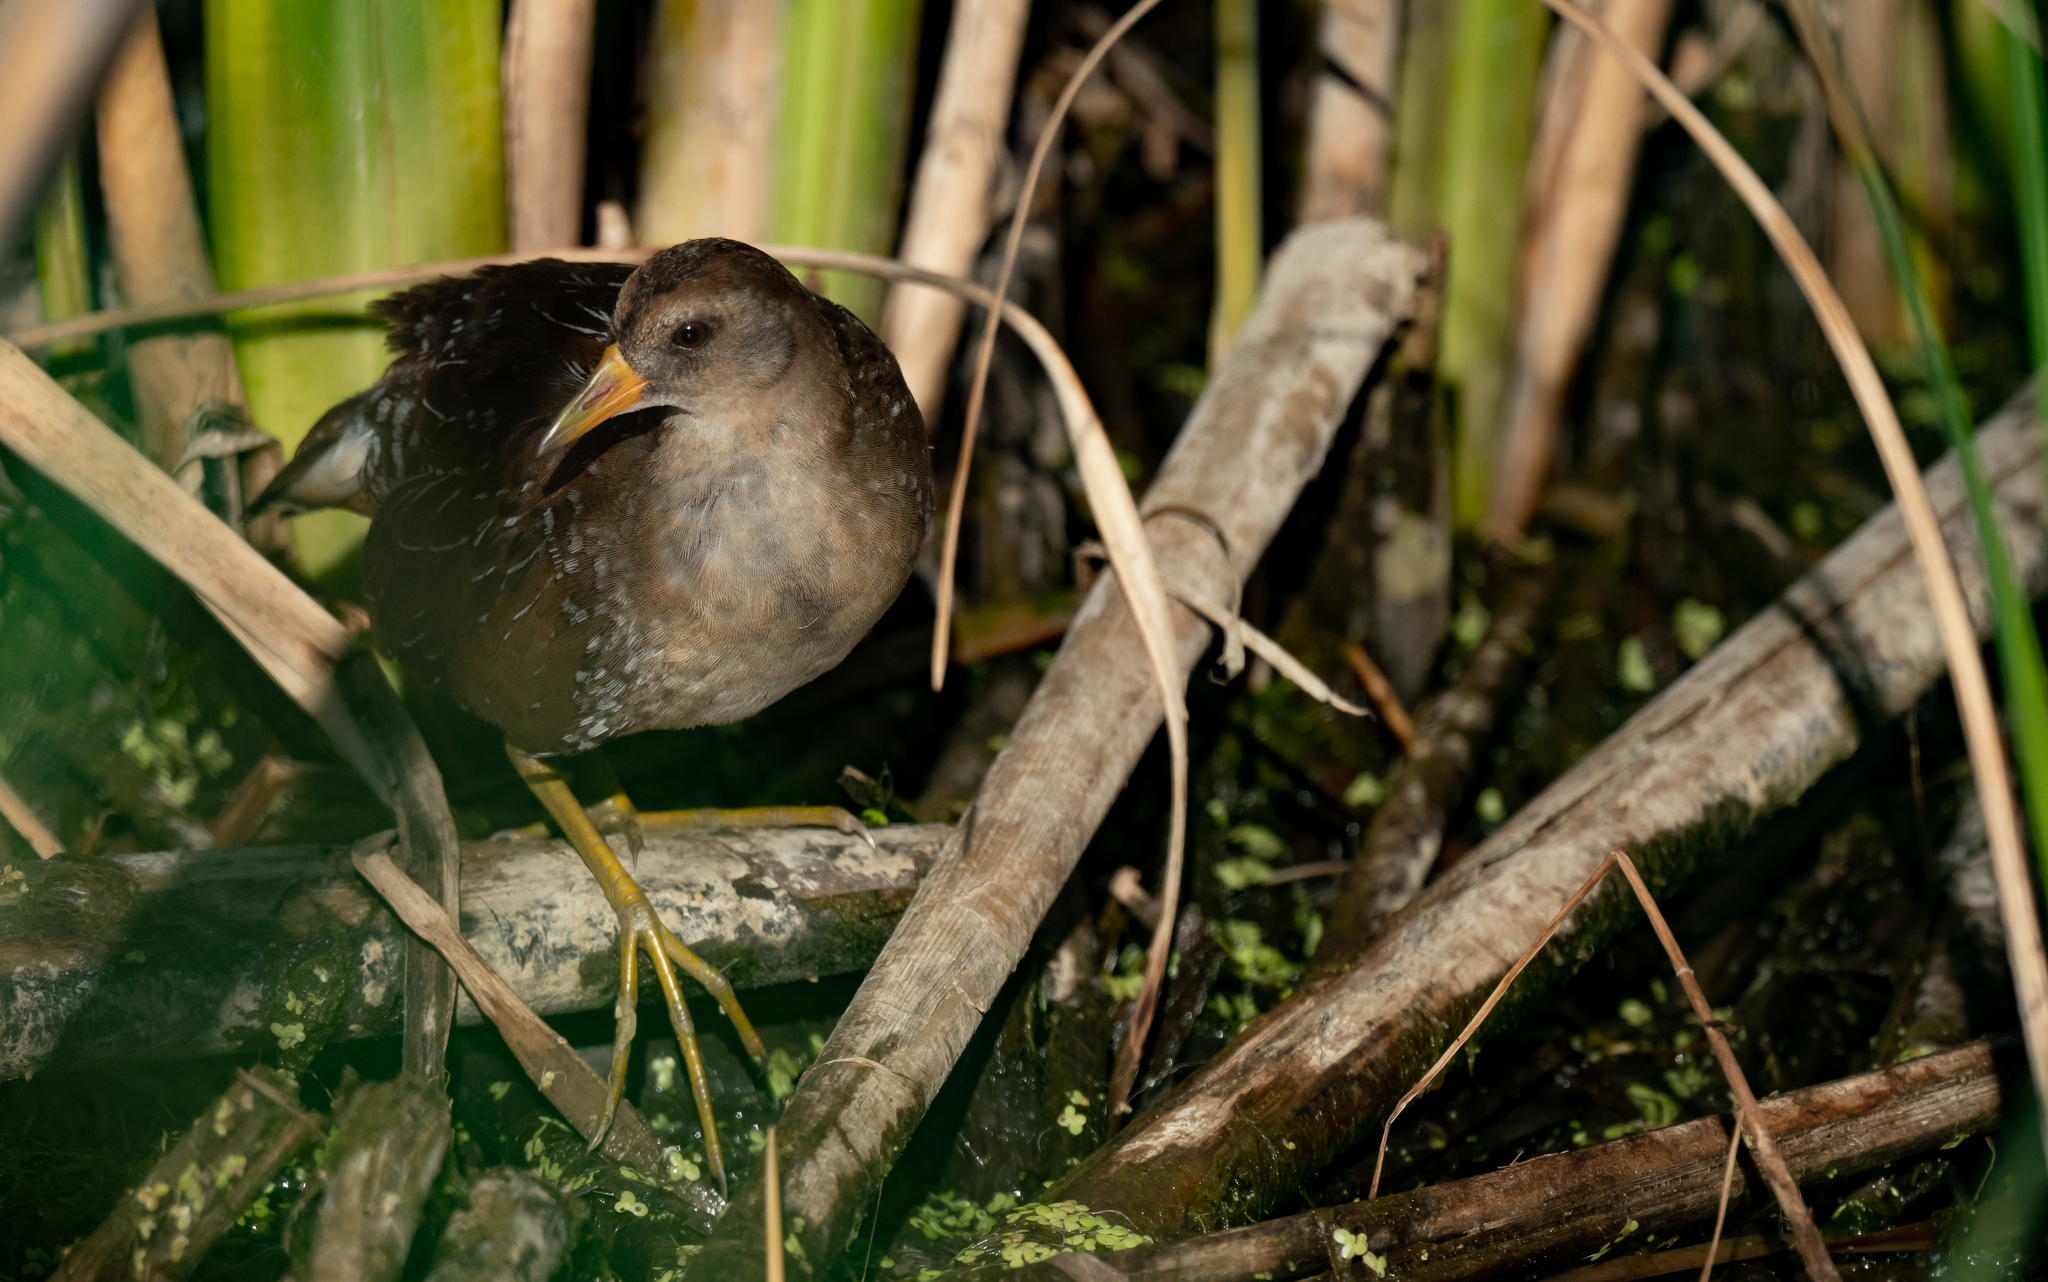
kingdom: Animalia
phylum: Chordata
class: Aves
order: Gruiformes
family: Rallidae
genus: Porzana
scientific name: Porzana carolina
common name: Sora
